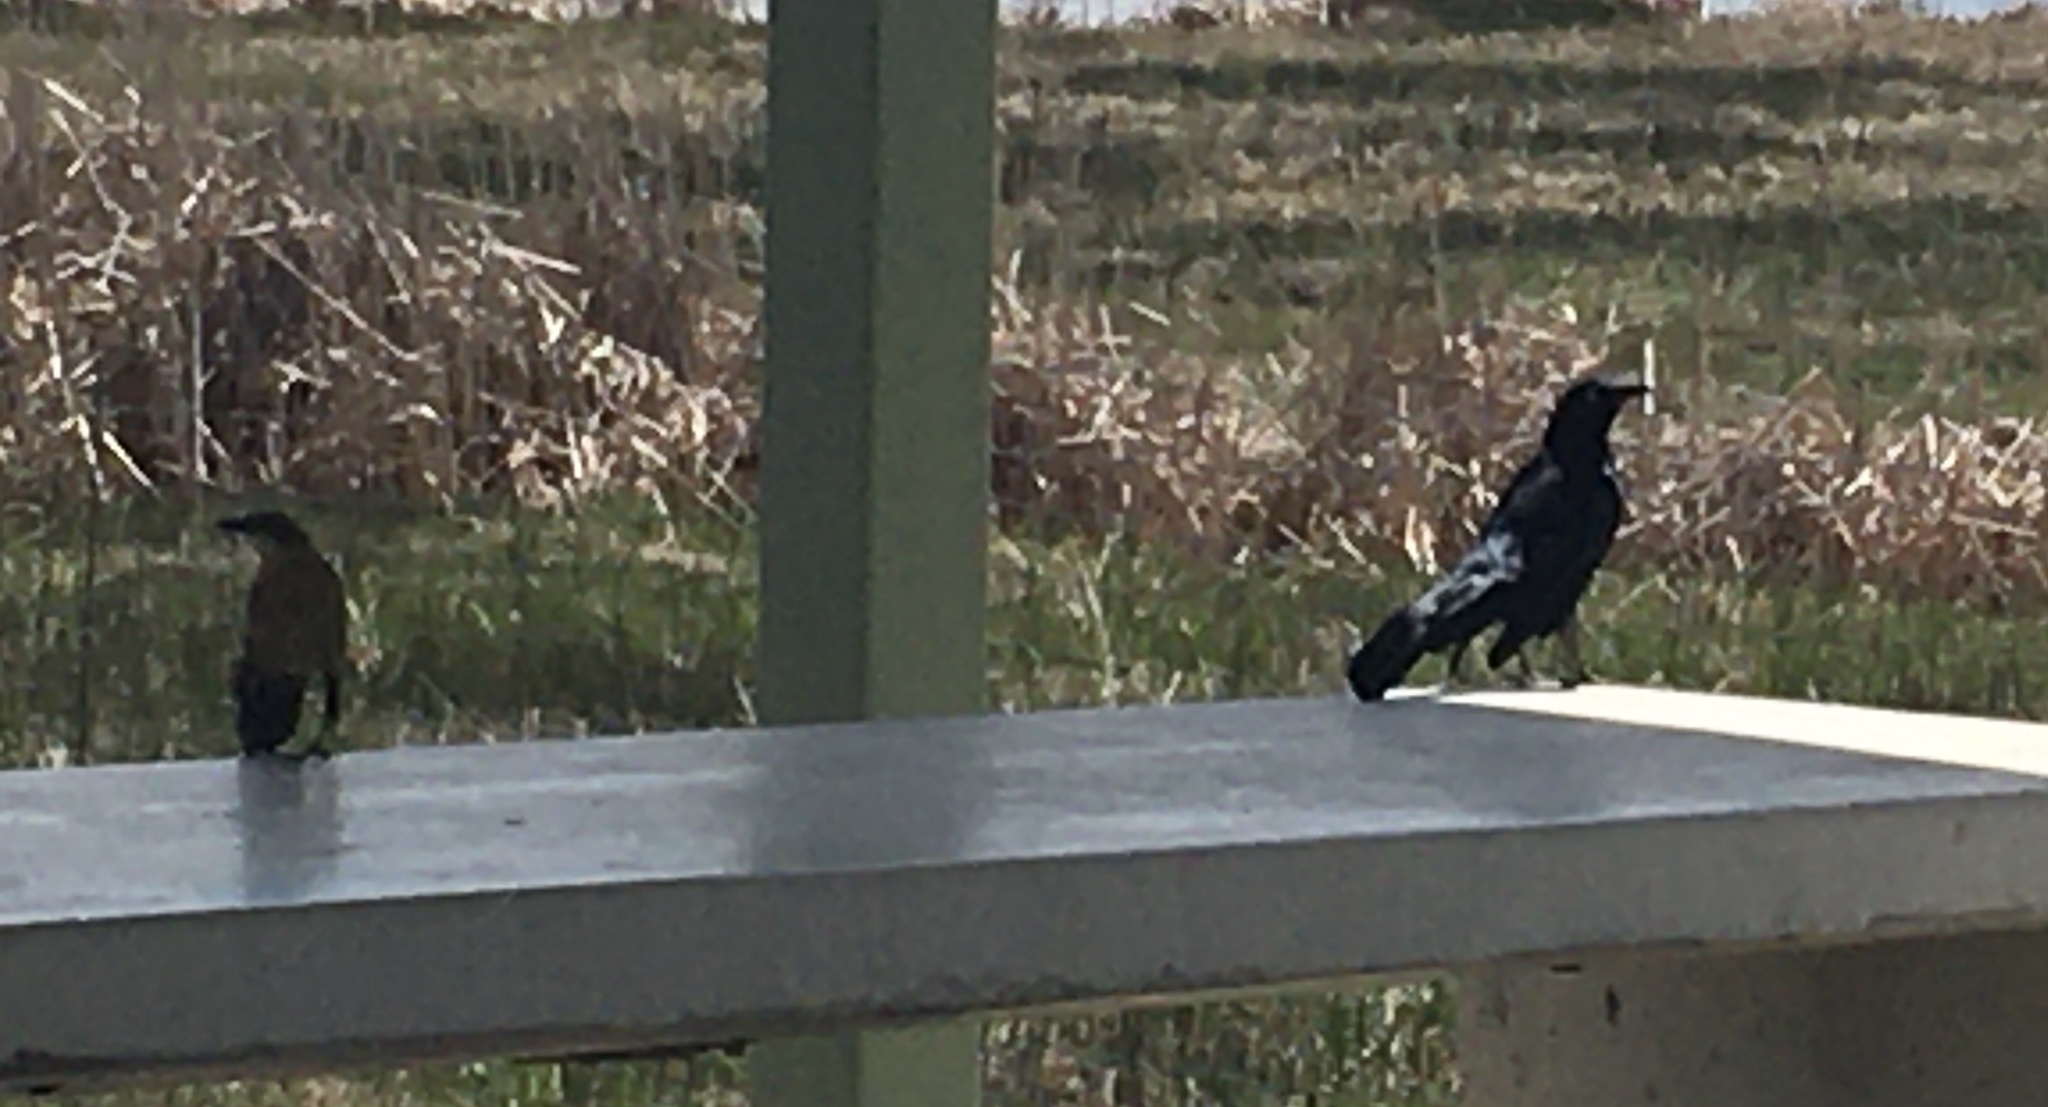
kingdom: Animalia
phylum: Chordata
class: Aves
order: Passeriformes
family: Icteridae
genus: Quiscalus
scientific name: Quiscalus mexicanus
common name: Great-tailed grackle
